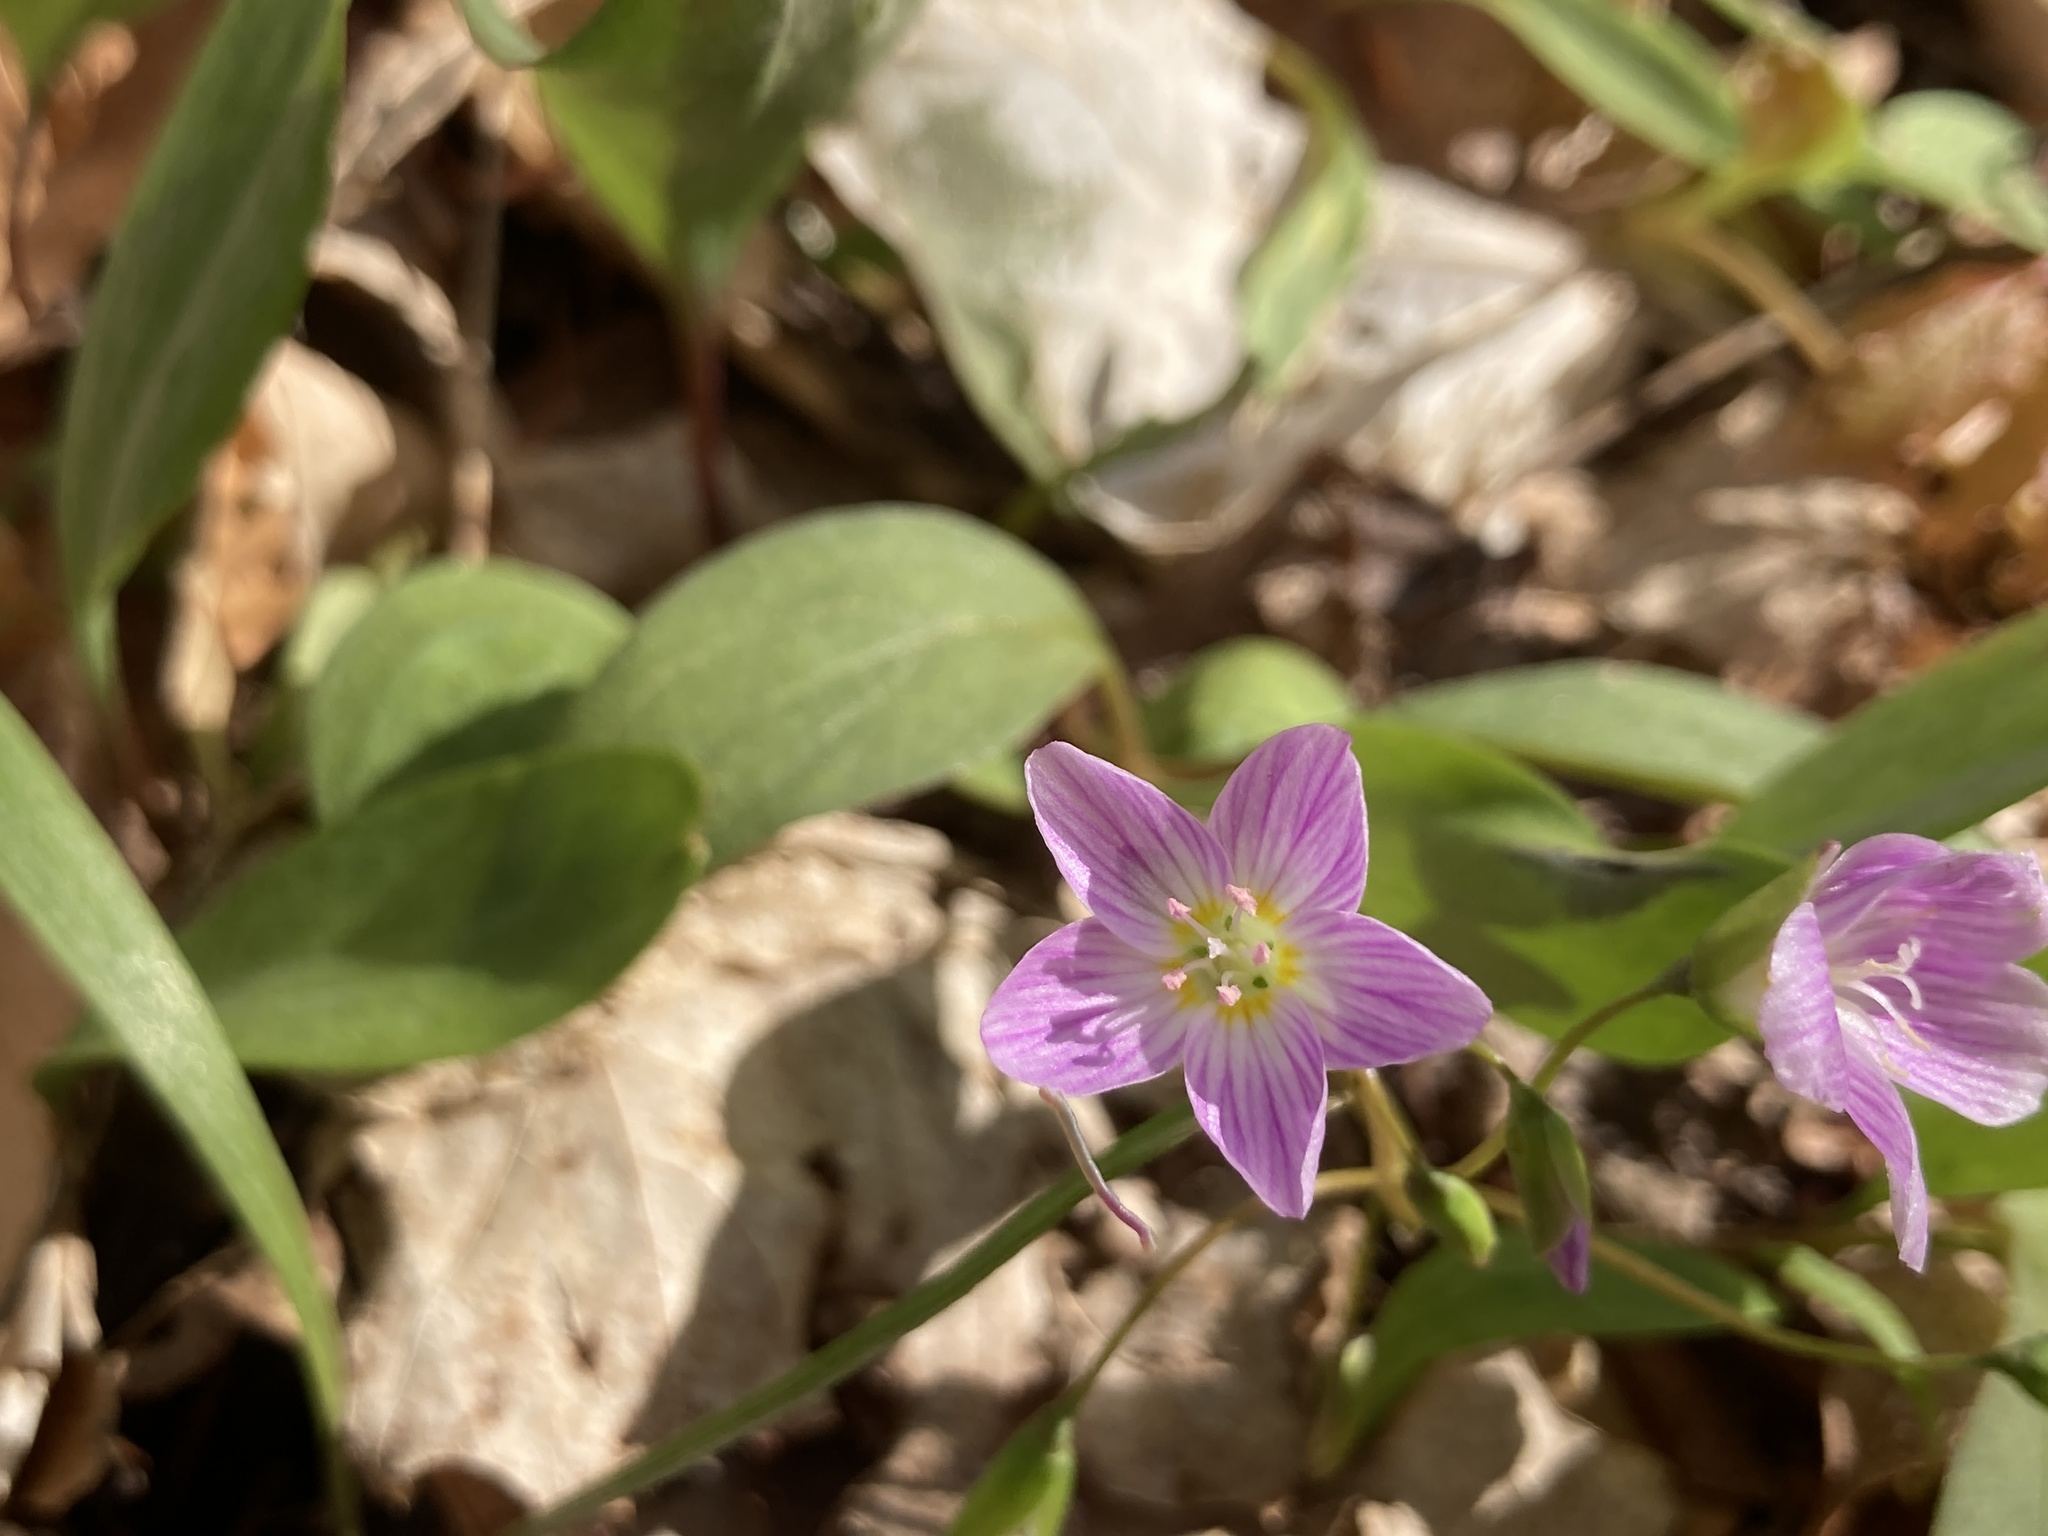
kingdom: Plantae
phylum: Tracheophyta
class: Magnoliopsida
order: Caryophyllales
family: Montiaceae
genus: Claytonia
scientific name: Claytonia caroliniana
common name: Carolina spring beauty
